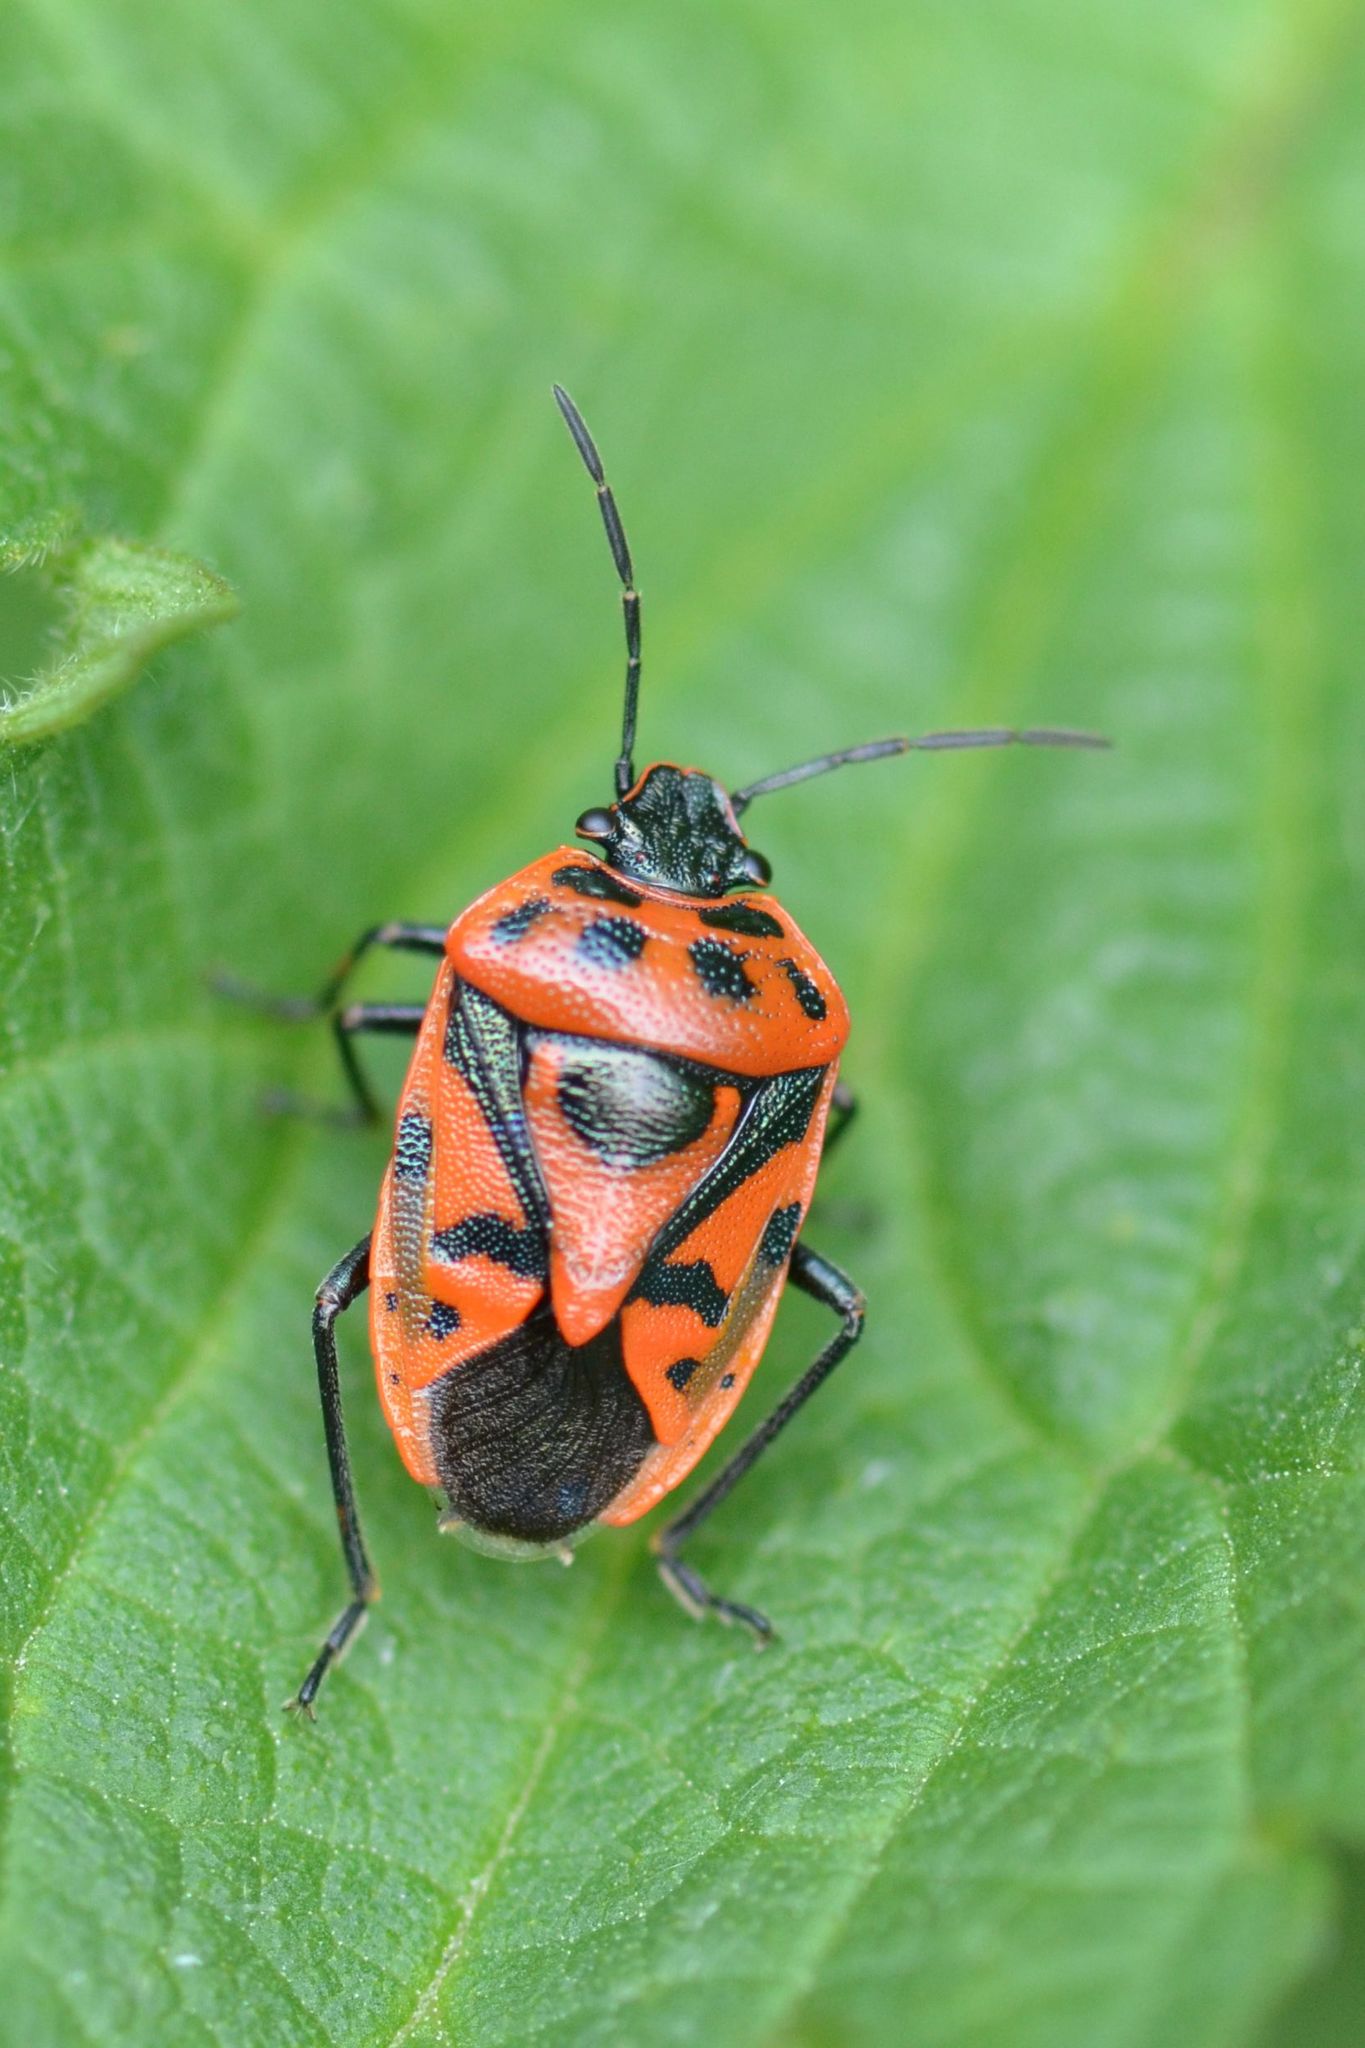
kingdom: Animalia
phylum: Arthropoda
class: Insecta
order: Hemiptera
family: Pentatomidae
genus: Eurydema
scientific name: Eurydema ornata
